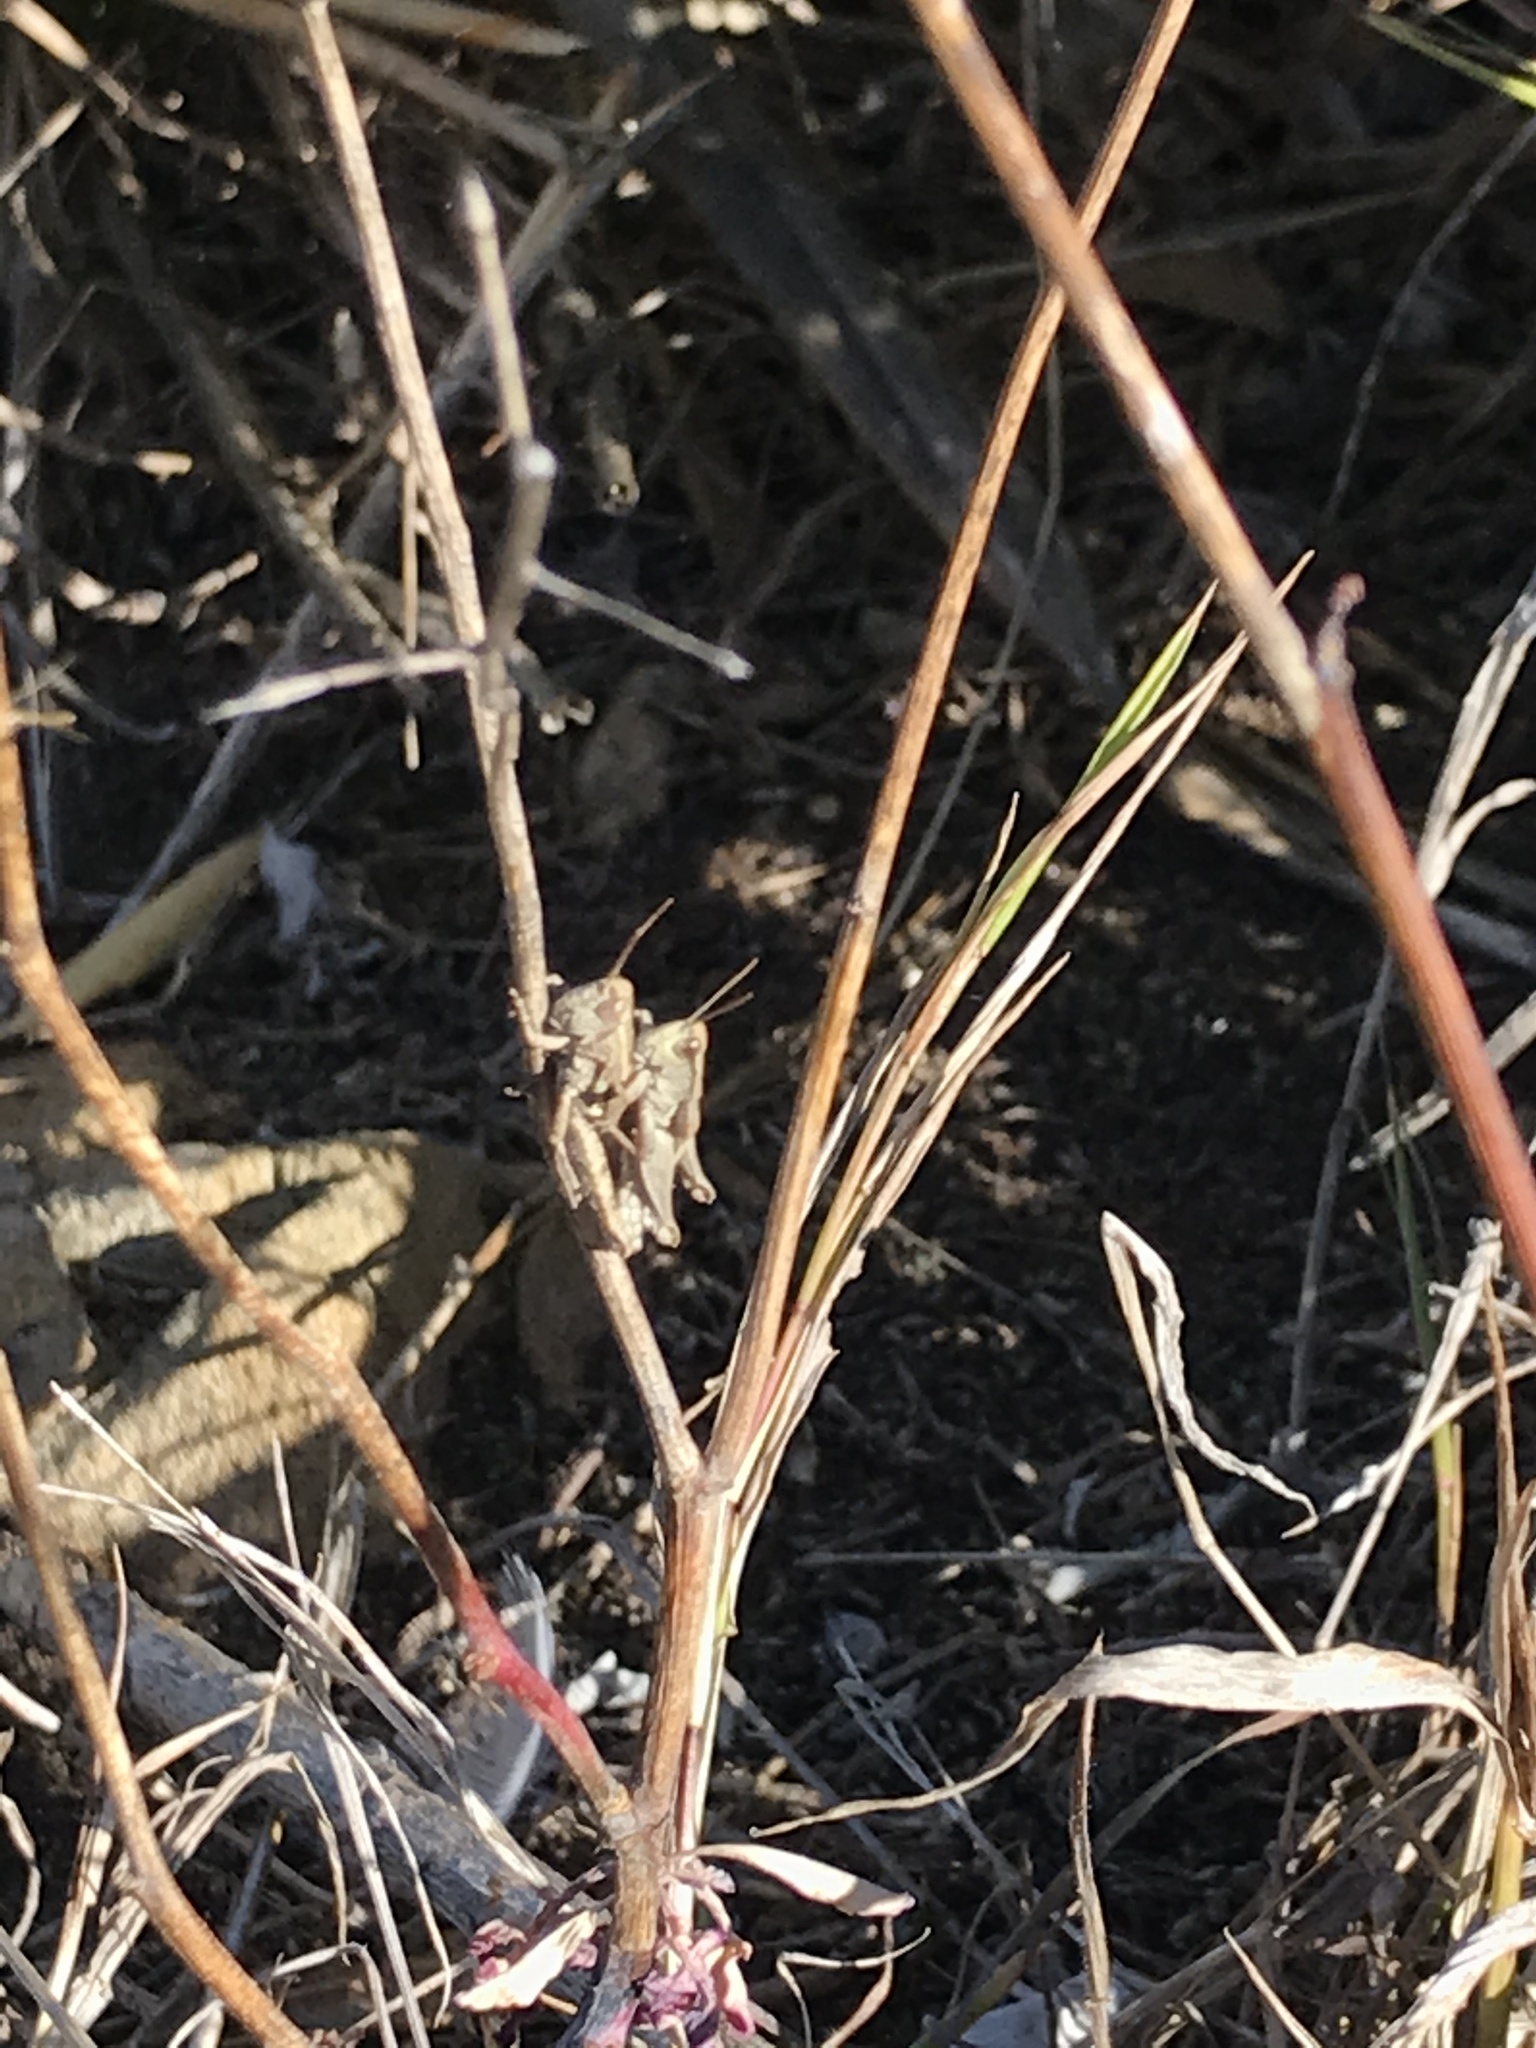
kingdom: Animalia
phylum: Arthropoda
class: Insecta
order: Orthoptera
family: Acrididae
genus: Phaulacridium
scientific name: Phaulacridium marginale
